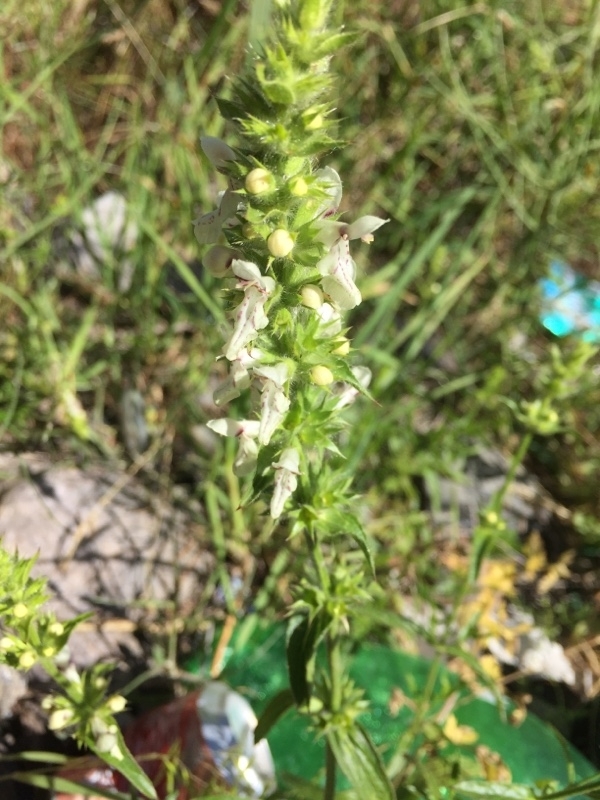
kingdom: Plantae
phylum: Tracheophyta
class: Magnoliopsida
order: Lamiales
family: Lamiaceae
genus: Stachys
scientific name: Stachys recta
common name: Perennial yellow-woundwort
